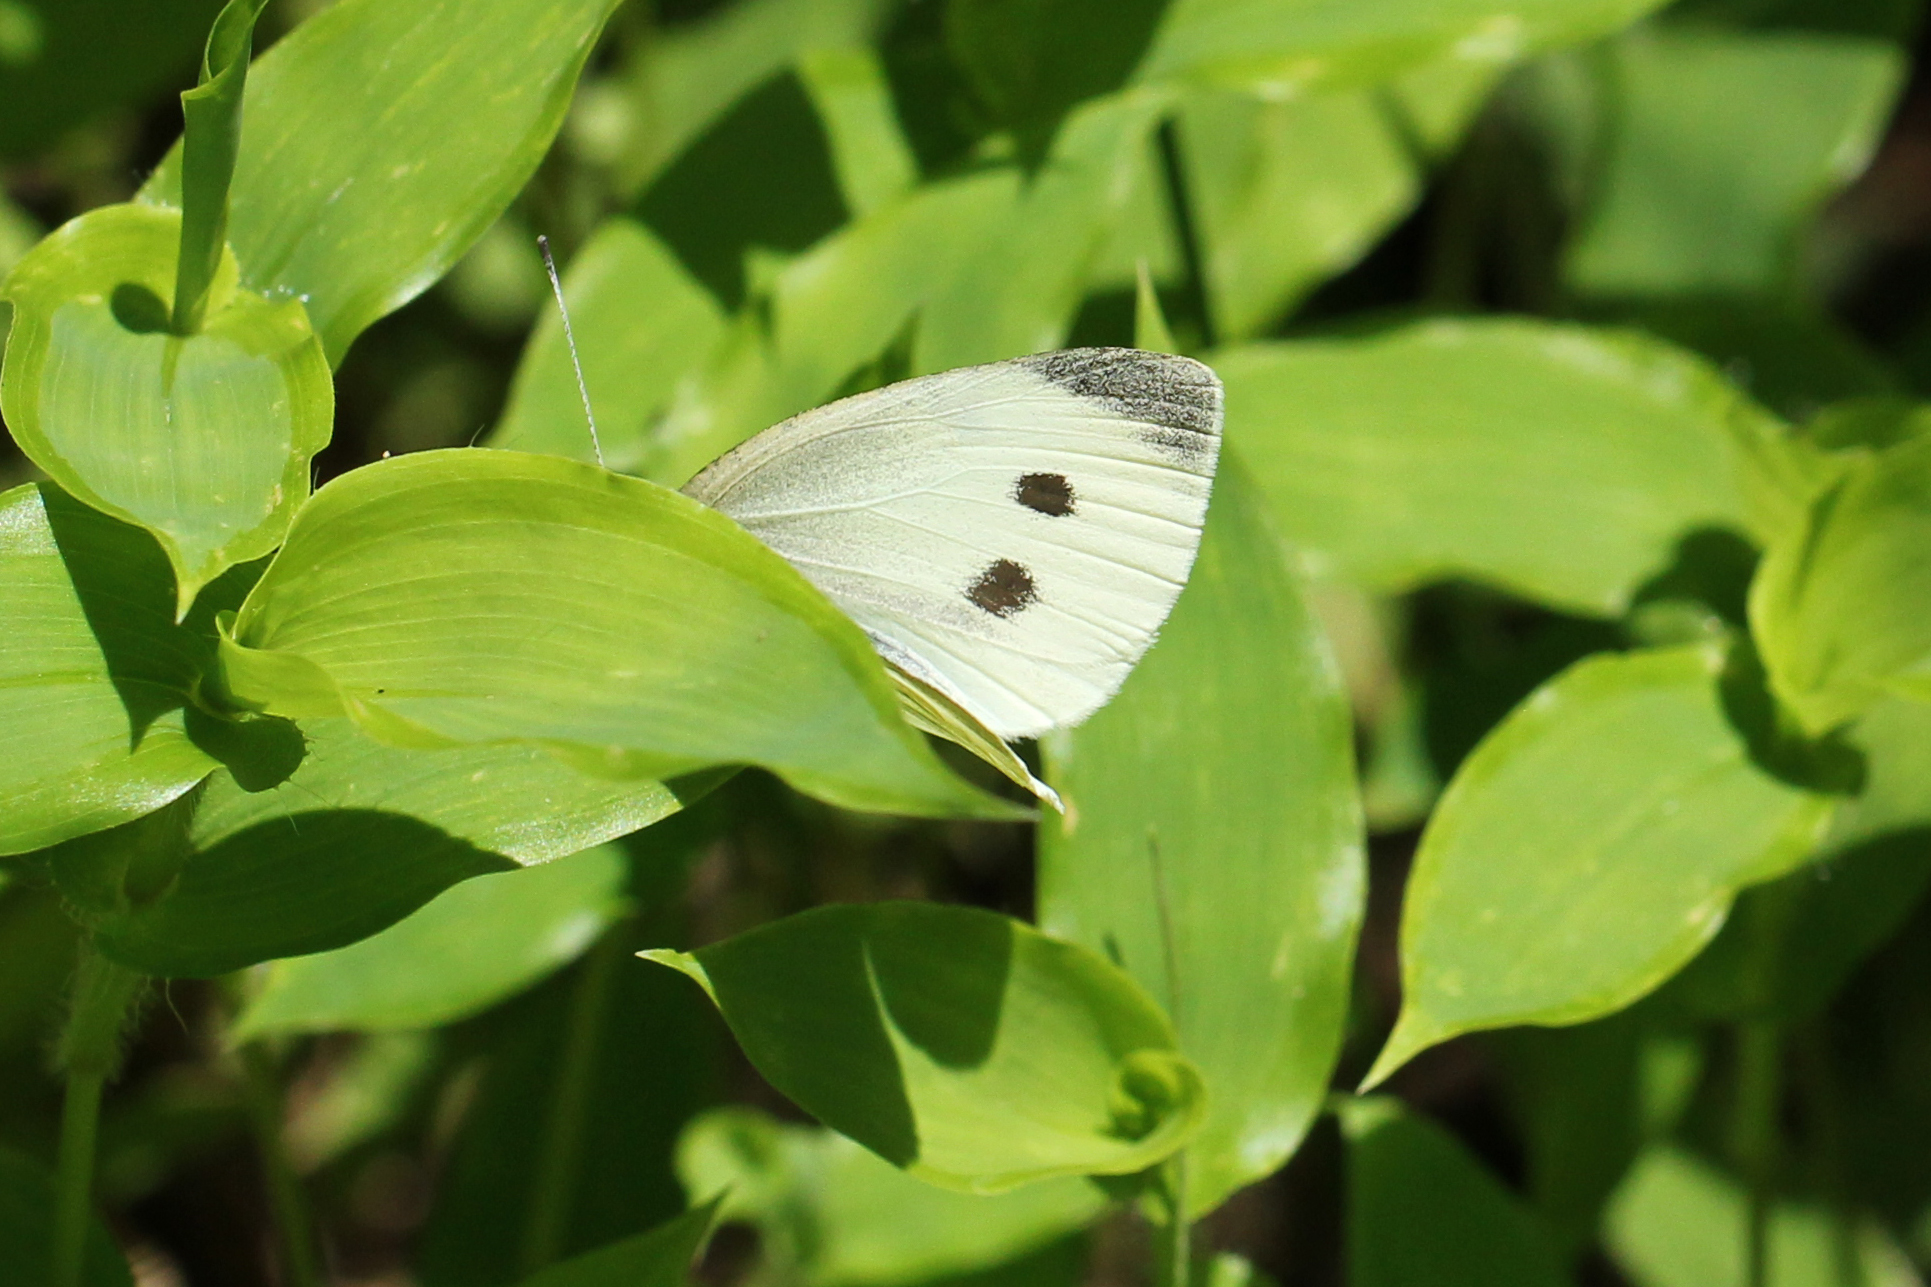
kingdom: Animalia
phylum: Arthropoda
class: Insecta
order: Lepidoptera
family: Pieridae
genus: Pieris
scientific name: Pieris rapae
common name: Small white
